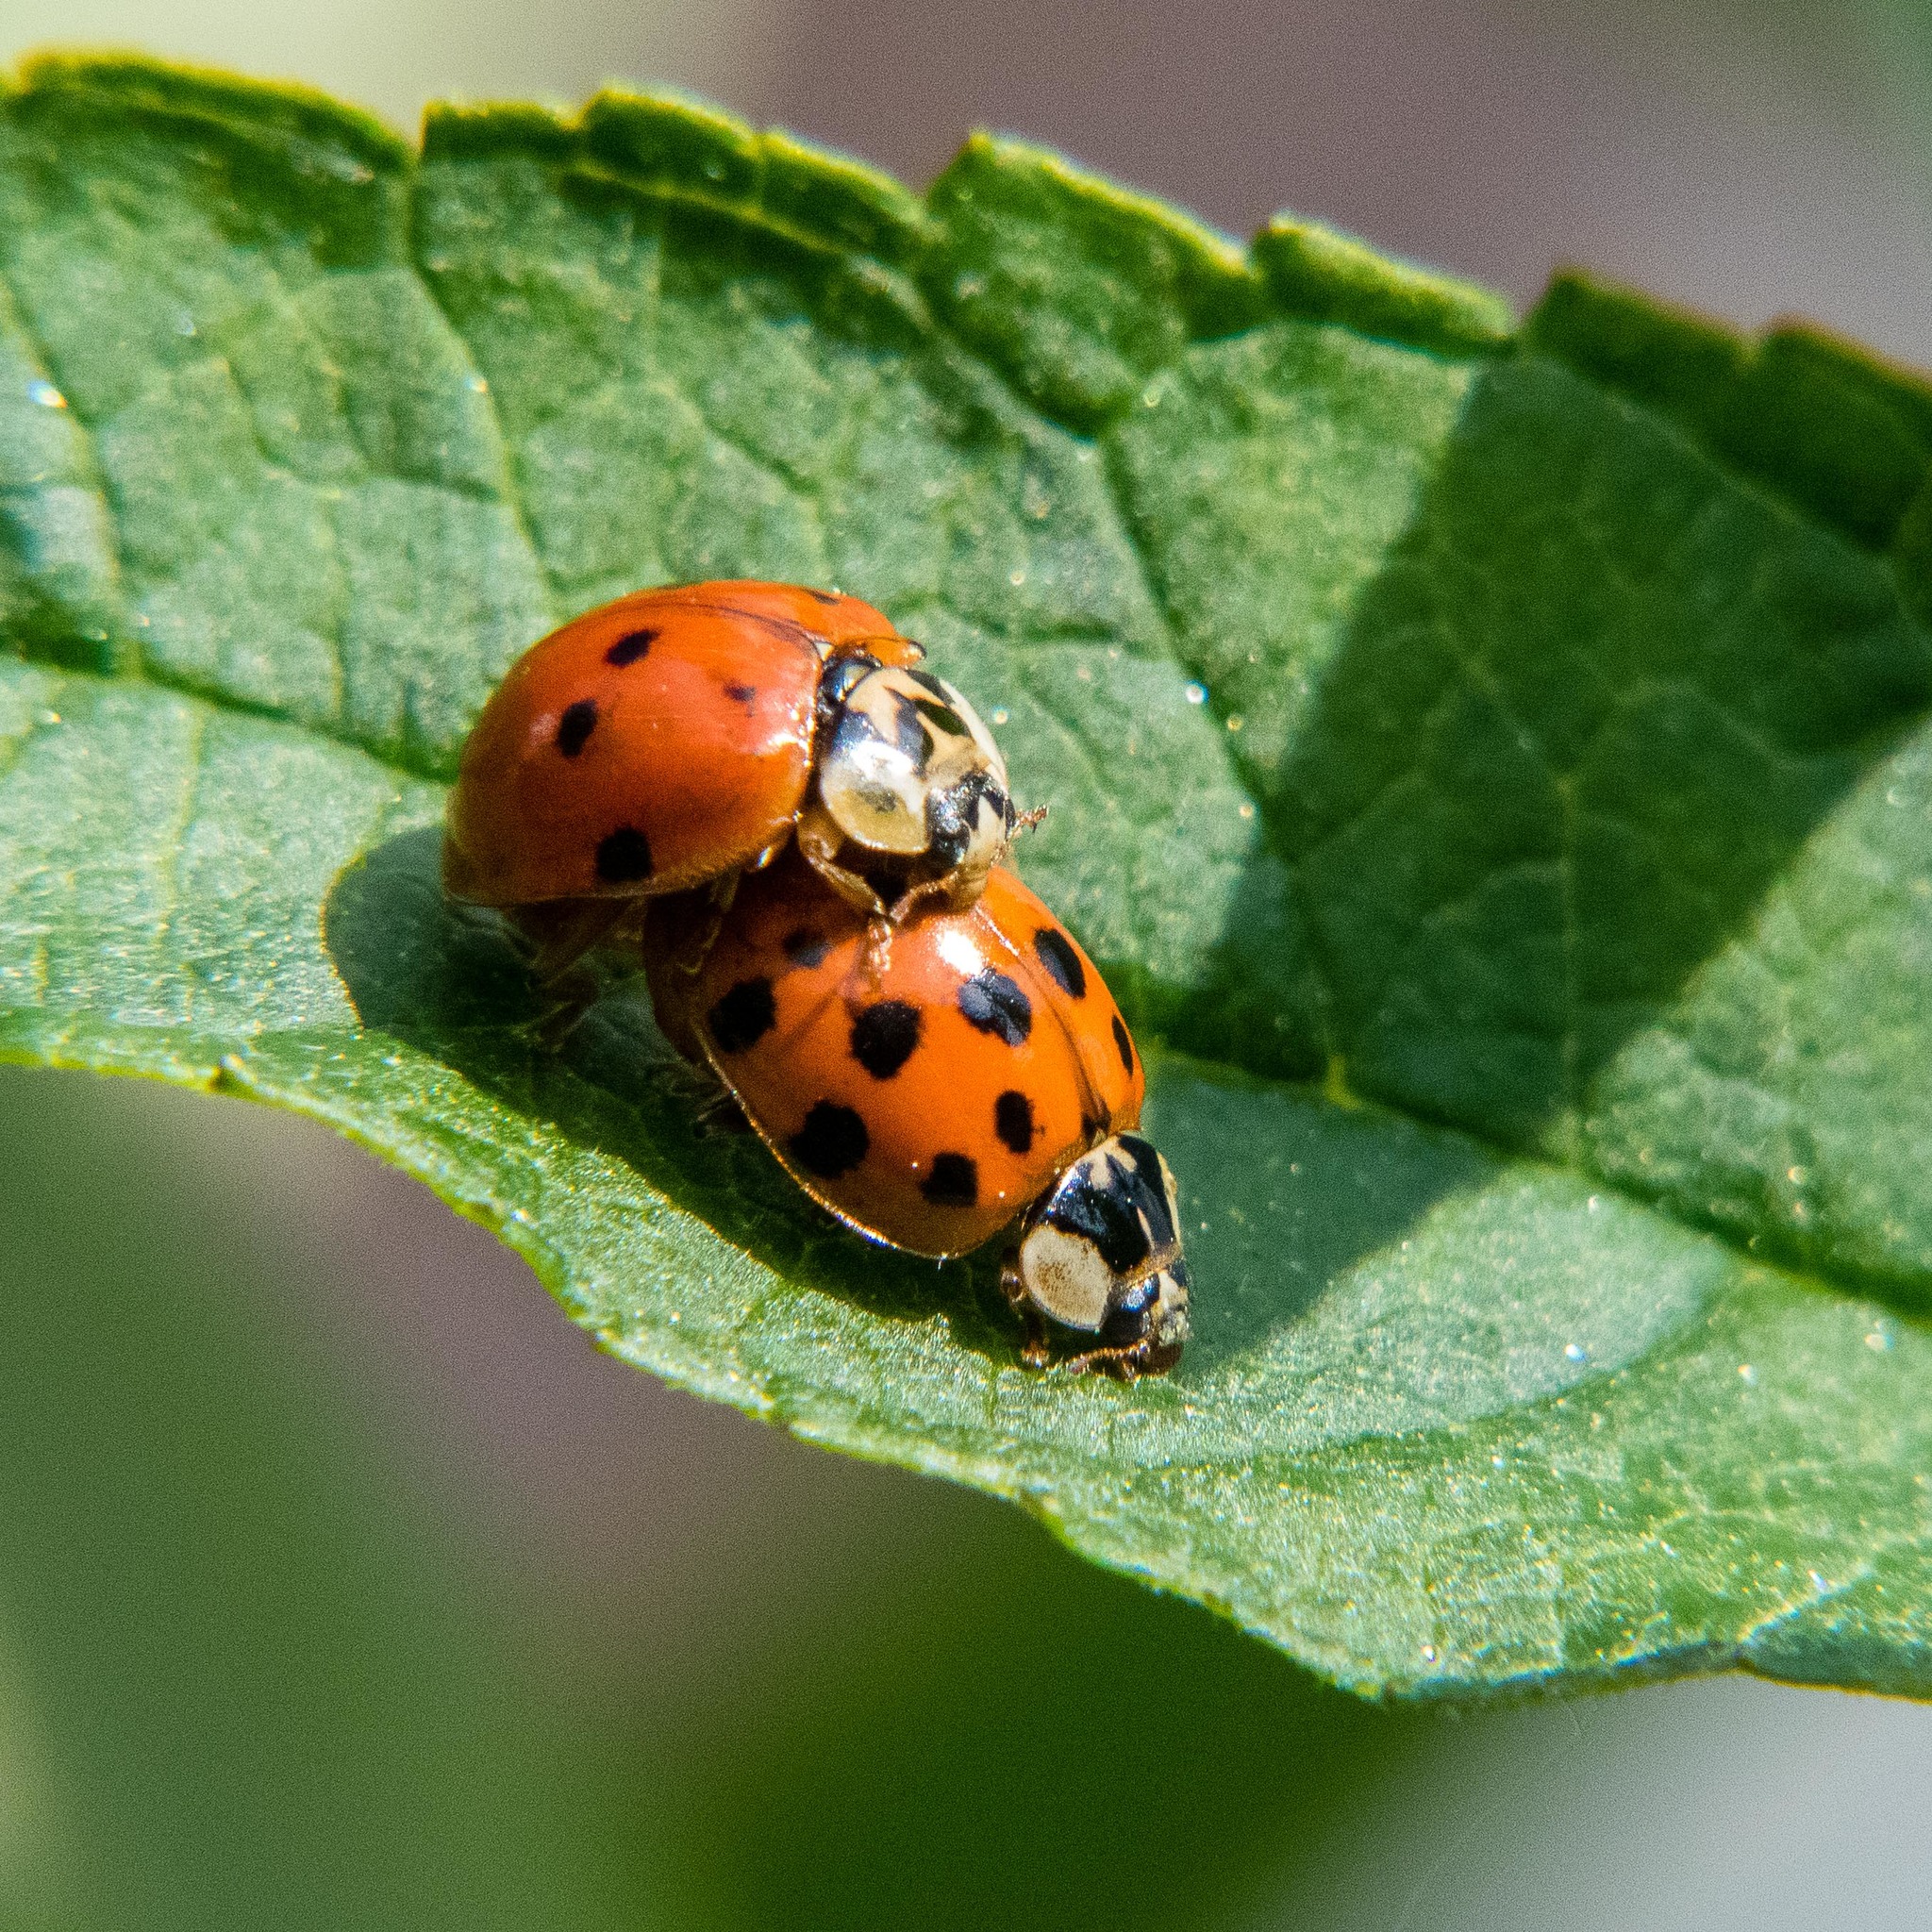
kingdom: Animalia
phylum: Arthropoda
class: Insecta
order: Coleoptera
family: Coccinellidae
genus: Harmonia
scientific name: Harmonia axyridis
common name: Harlequin ladybird
